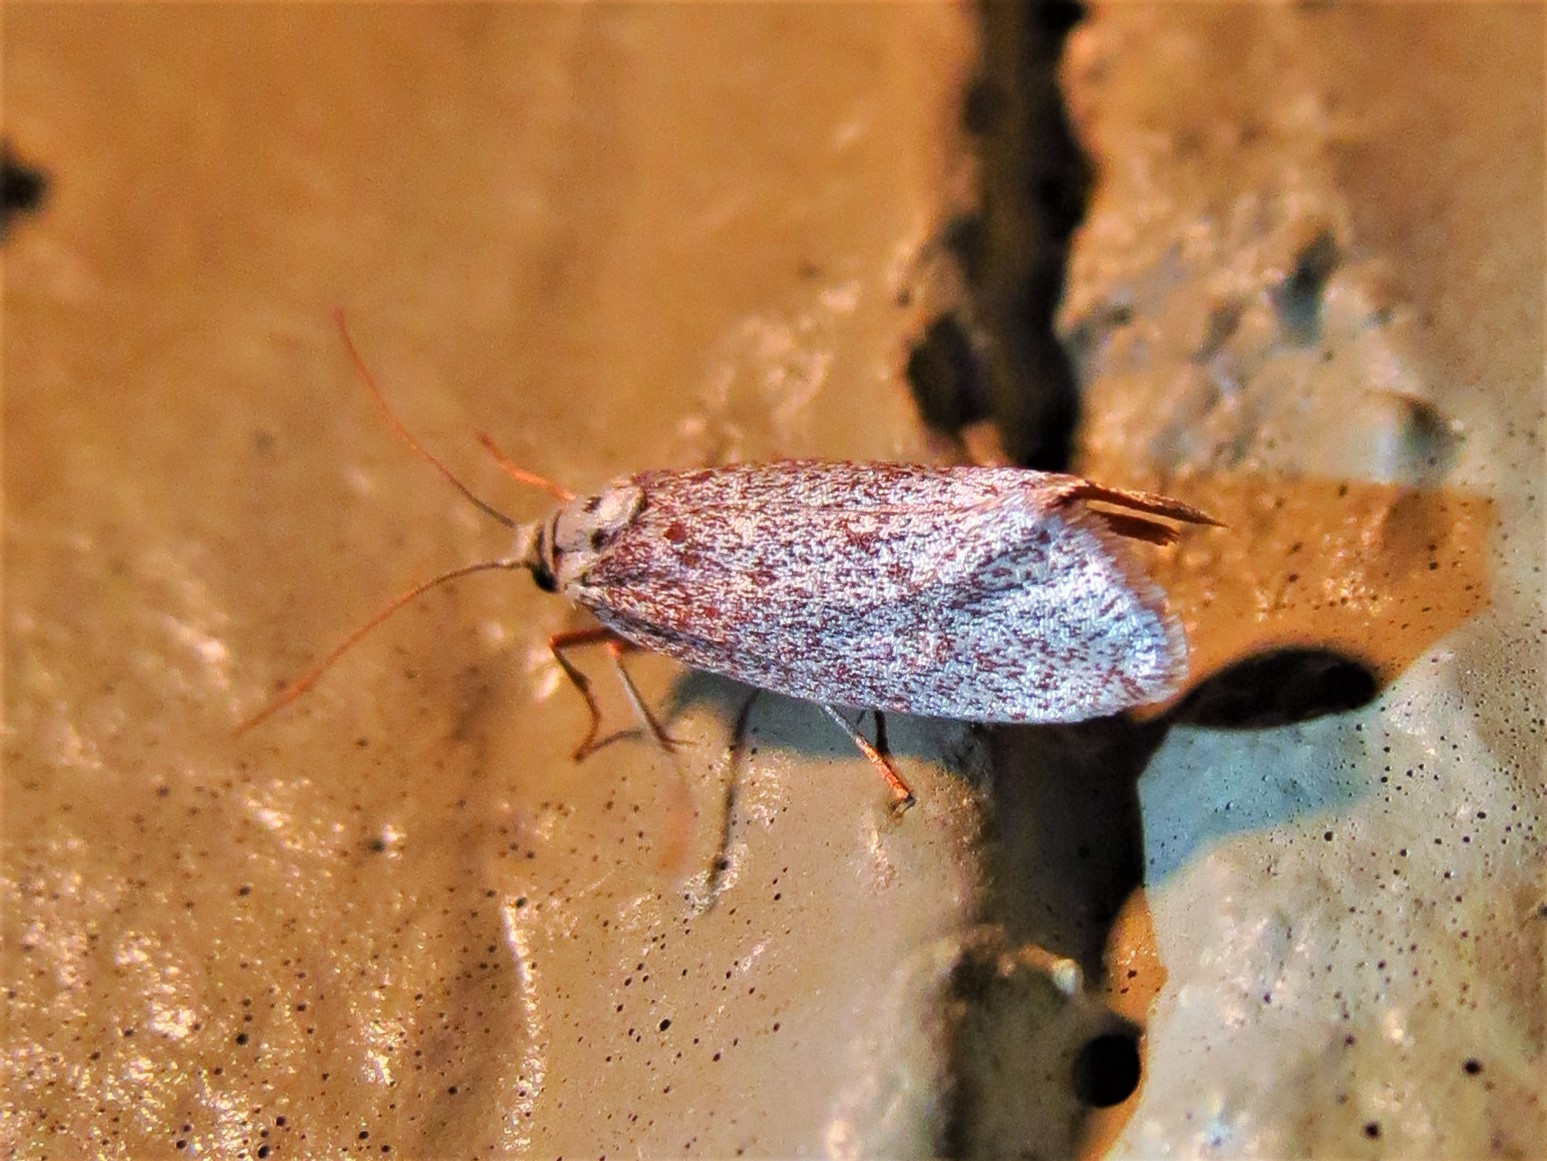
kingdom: Animalia
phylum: Arthropoda
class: Insecta
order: Lepidoptera
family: Lacturidae
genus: Lactura
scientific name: Lactura
